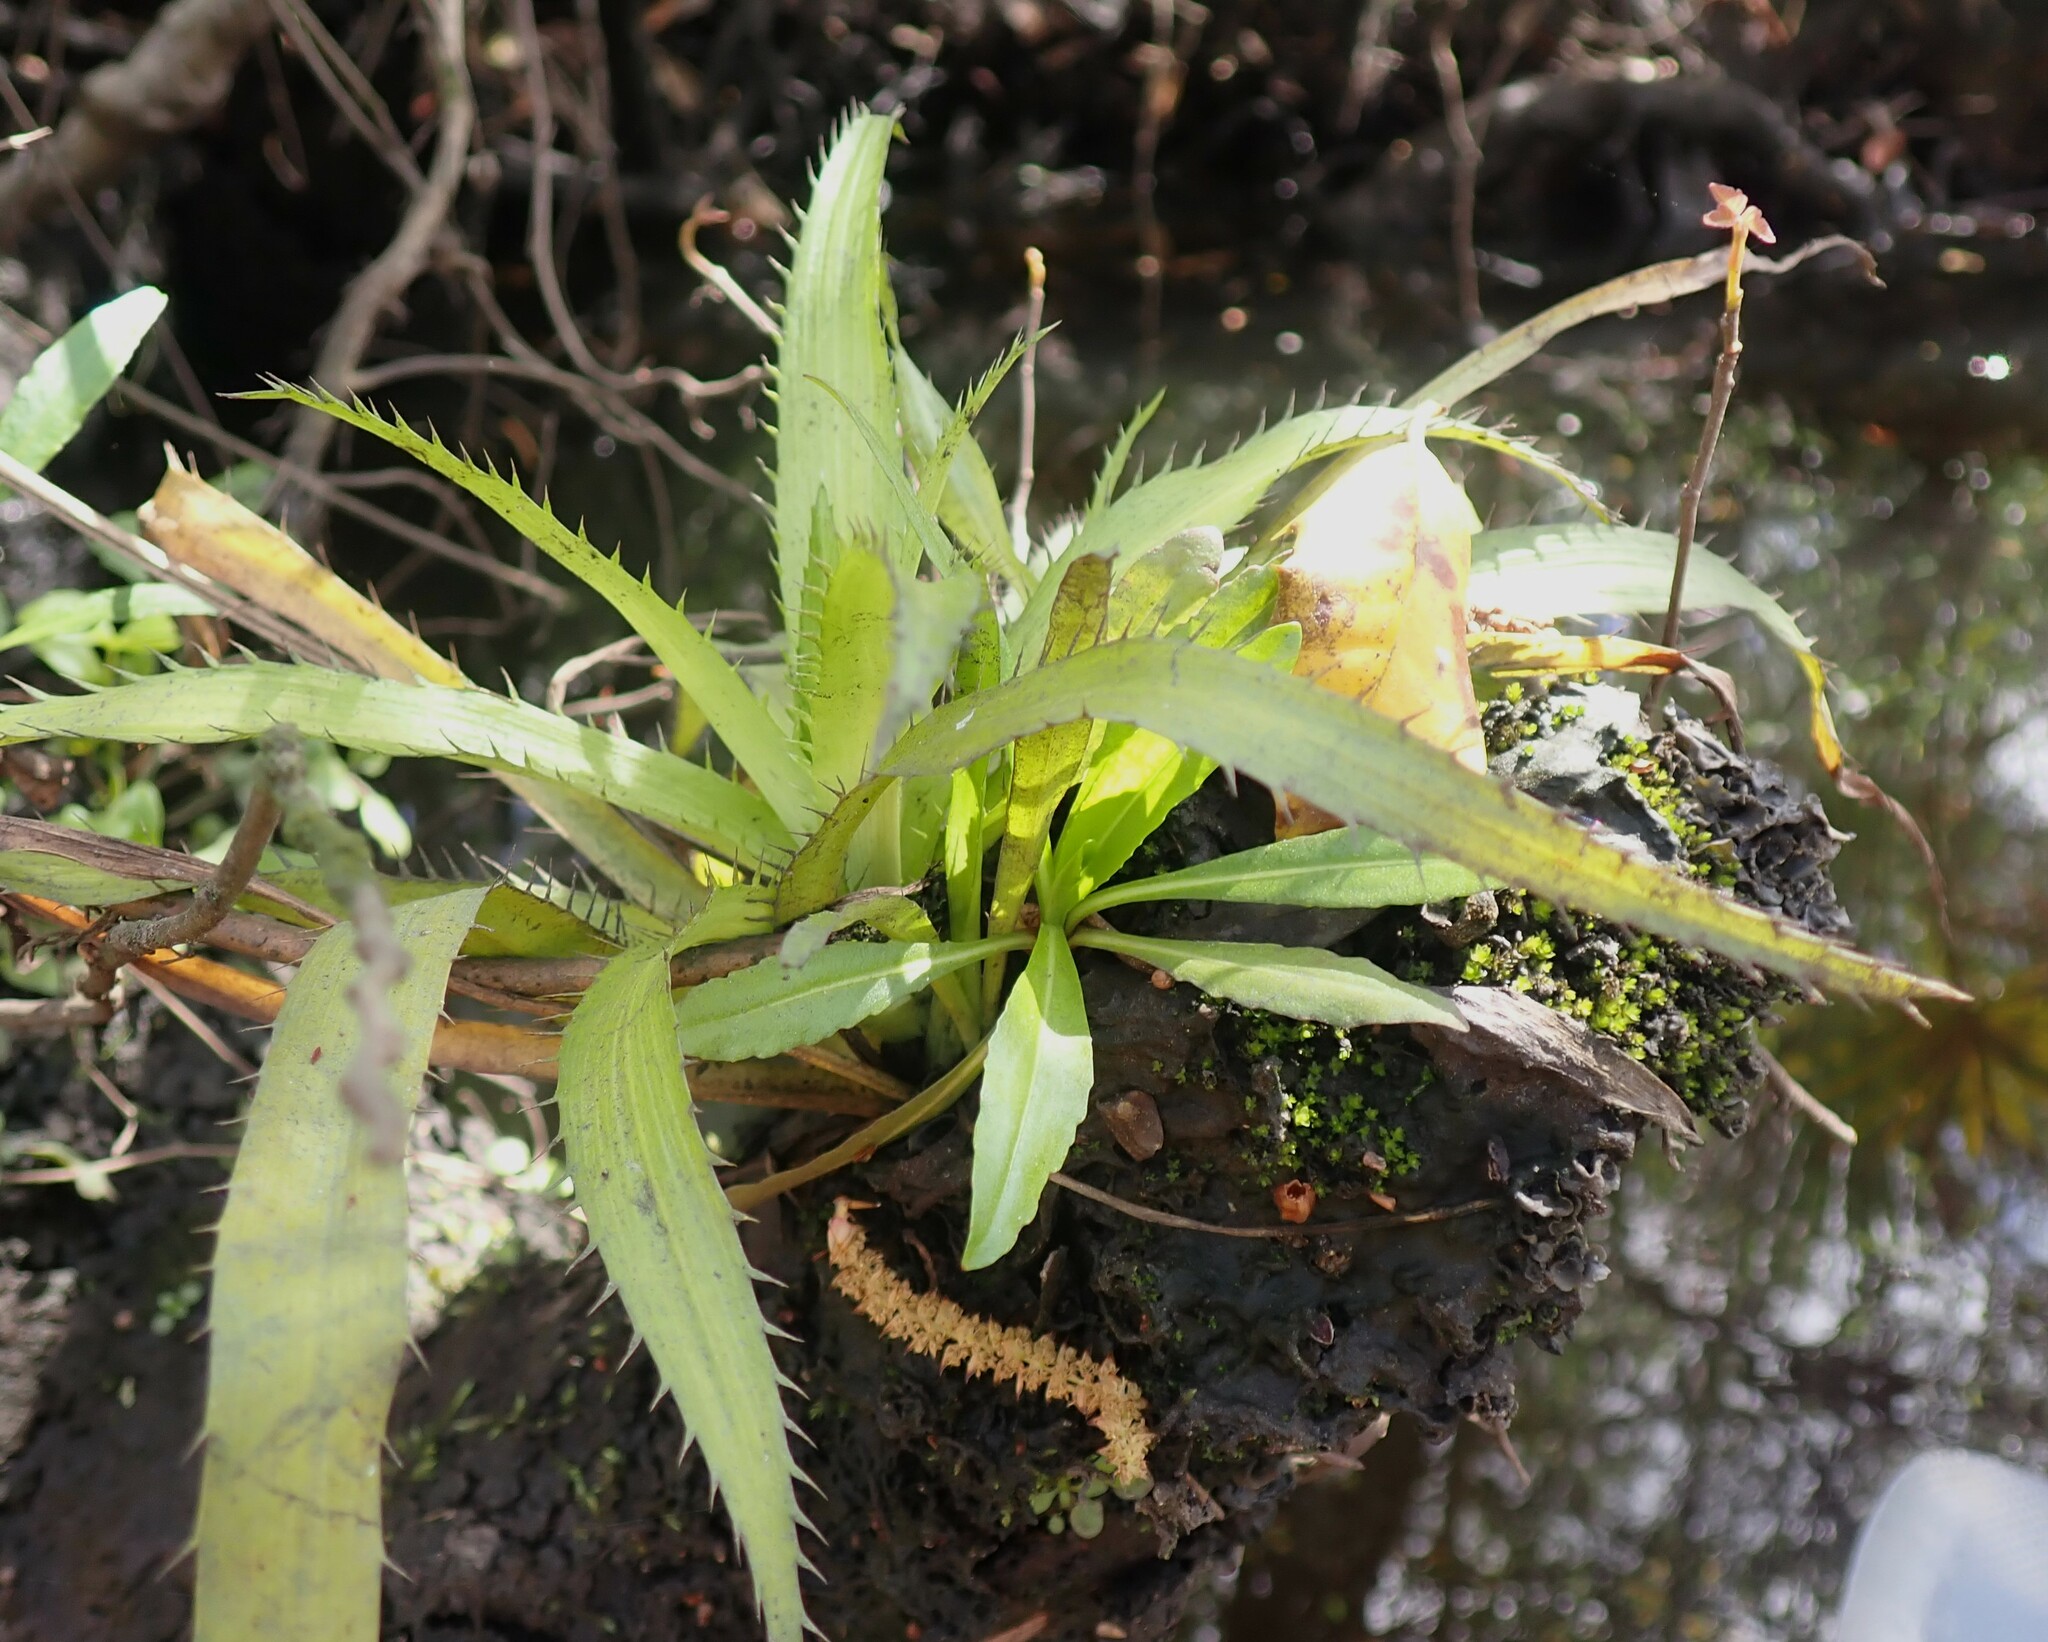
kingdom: Plantae
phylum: Tracheophyta
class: Magnoliopsida
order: Apiales
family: Apiaceae
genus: Eryngium
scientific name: Eryngium yuccifolium
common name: Button eryngo
